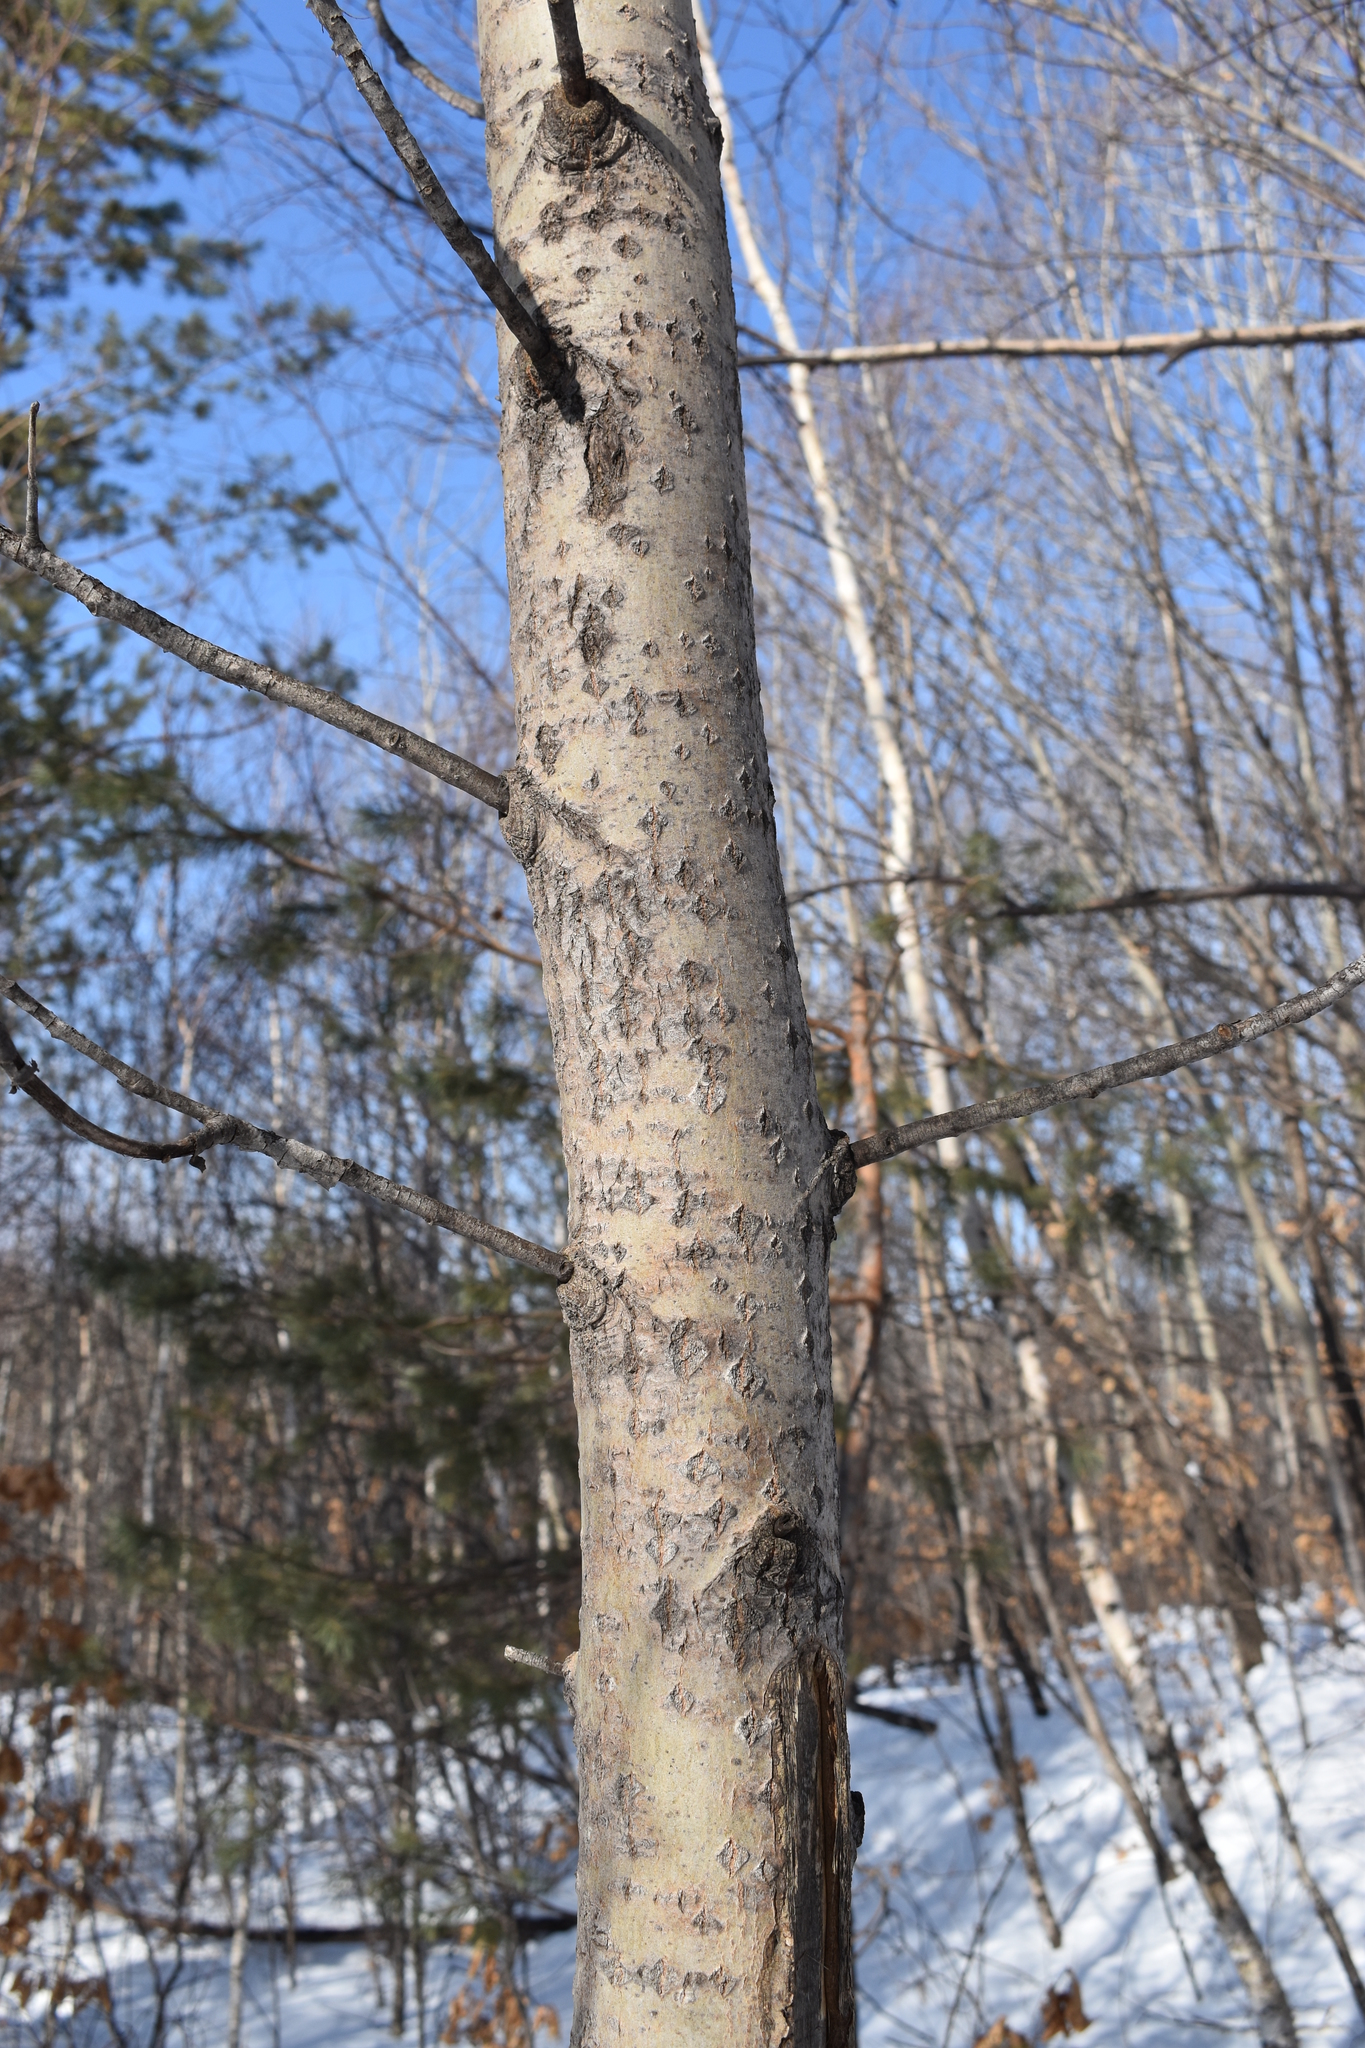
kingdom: Plantae
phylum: Tracheophyta
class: Magnoliopsida
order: Malpighiales
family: Salicaceae
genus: Populus
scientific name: Populus tremula
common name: European aspen
